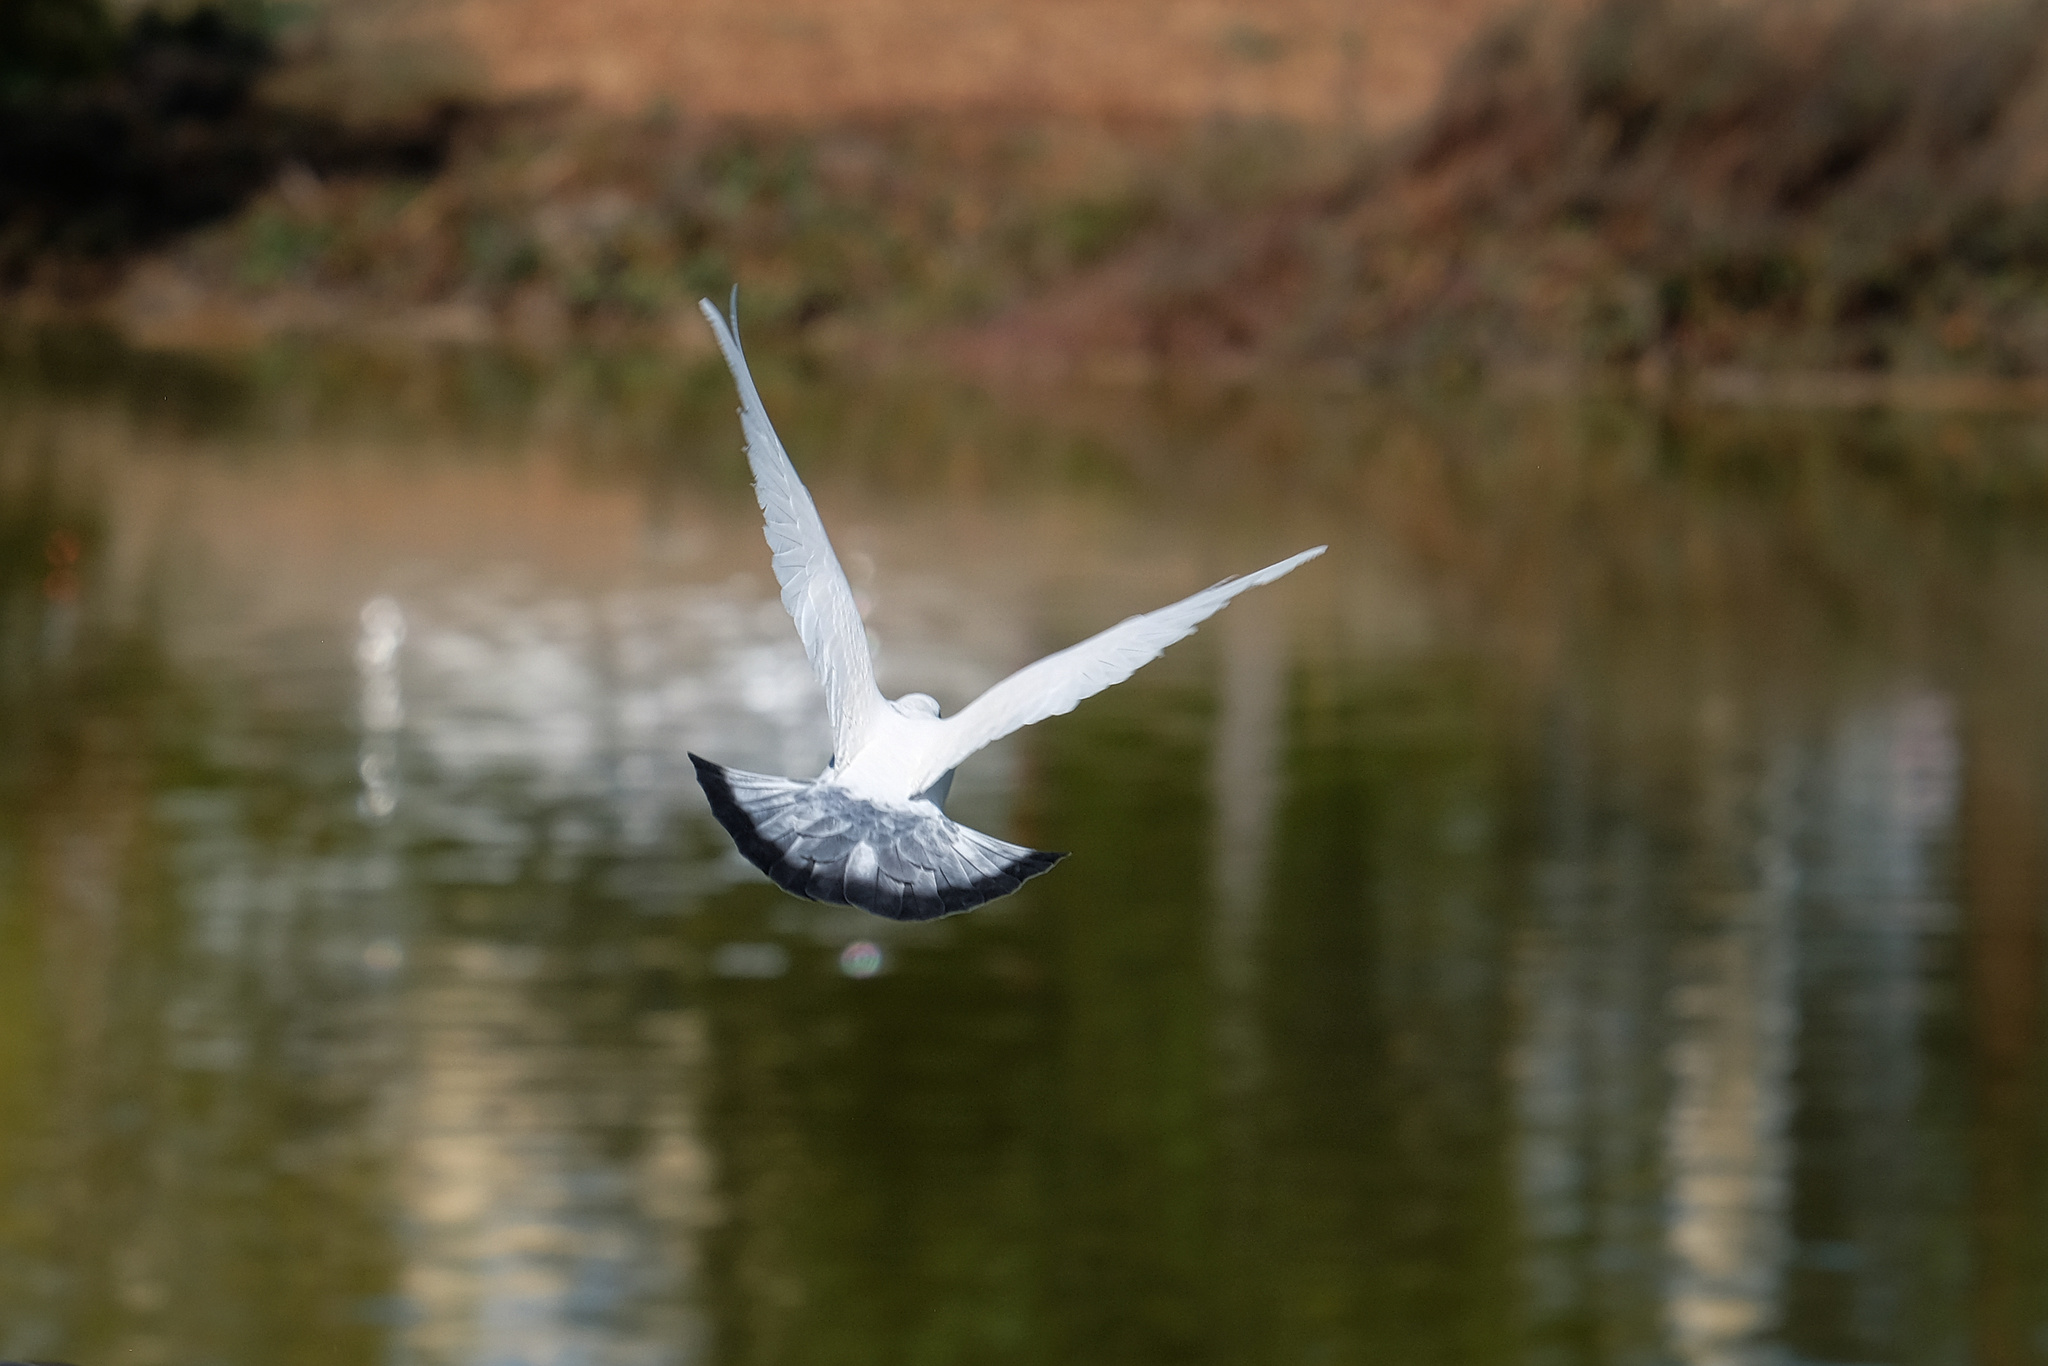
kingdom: Animalia
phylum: Chordata
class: Aves
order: Columbiformes
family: Columbidae
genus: Columba
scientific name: Columba livia
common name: Rock pigeon
